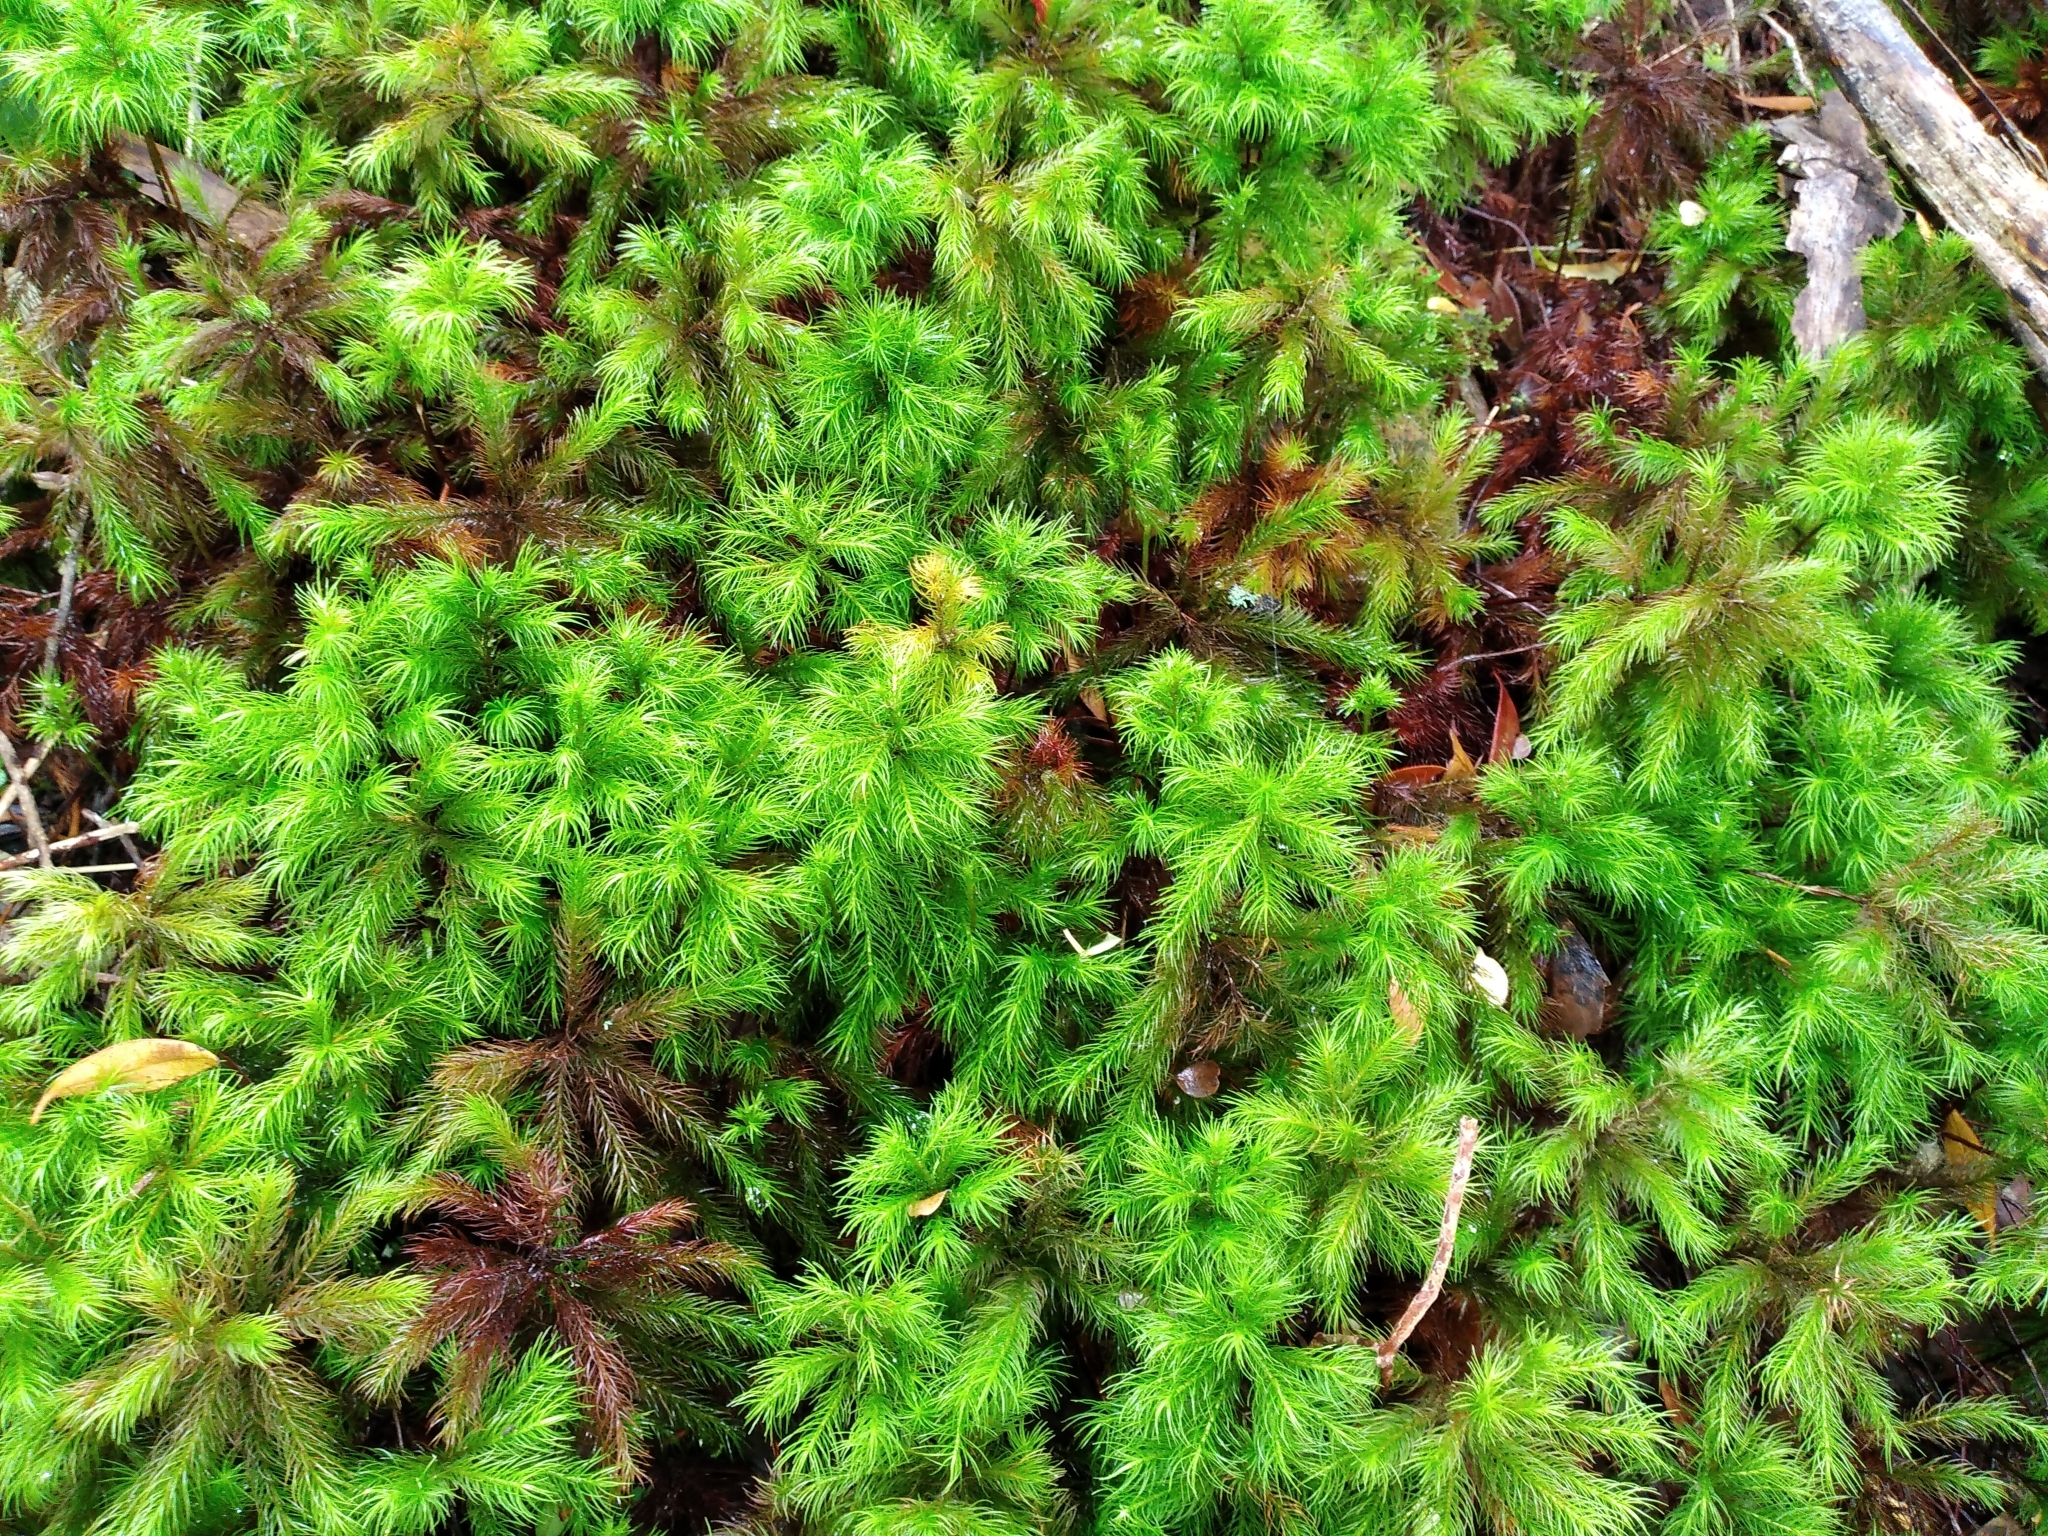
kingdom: Plantae
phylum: Bryophyta
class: Polytrichopsida
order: Polytrichales
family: Polytrichaceae
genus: Dendroligotrichum
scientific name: Dendroligotrichum tongariroense
